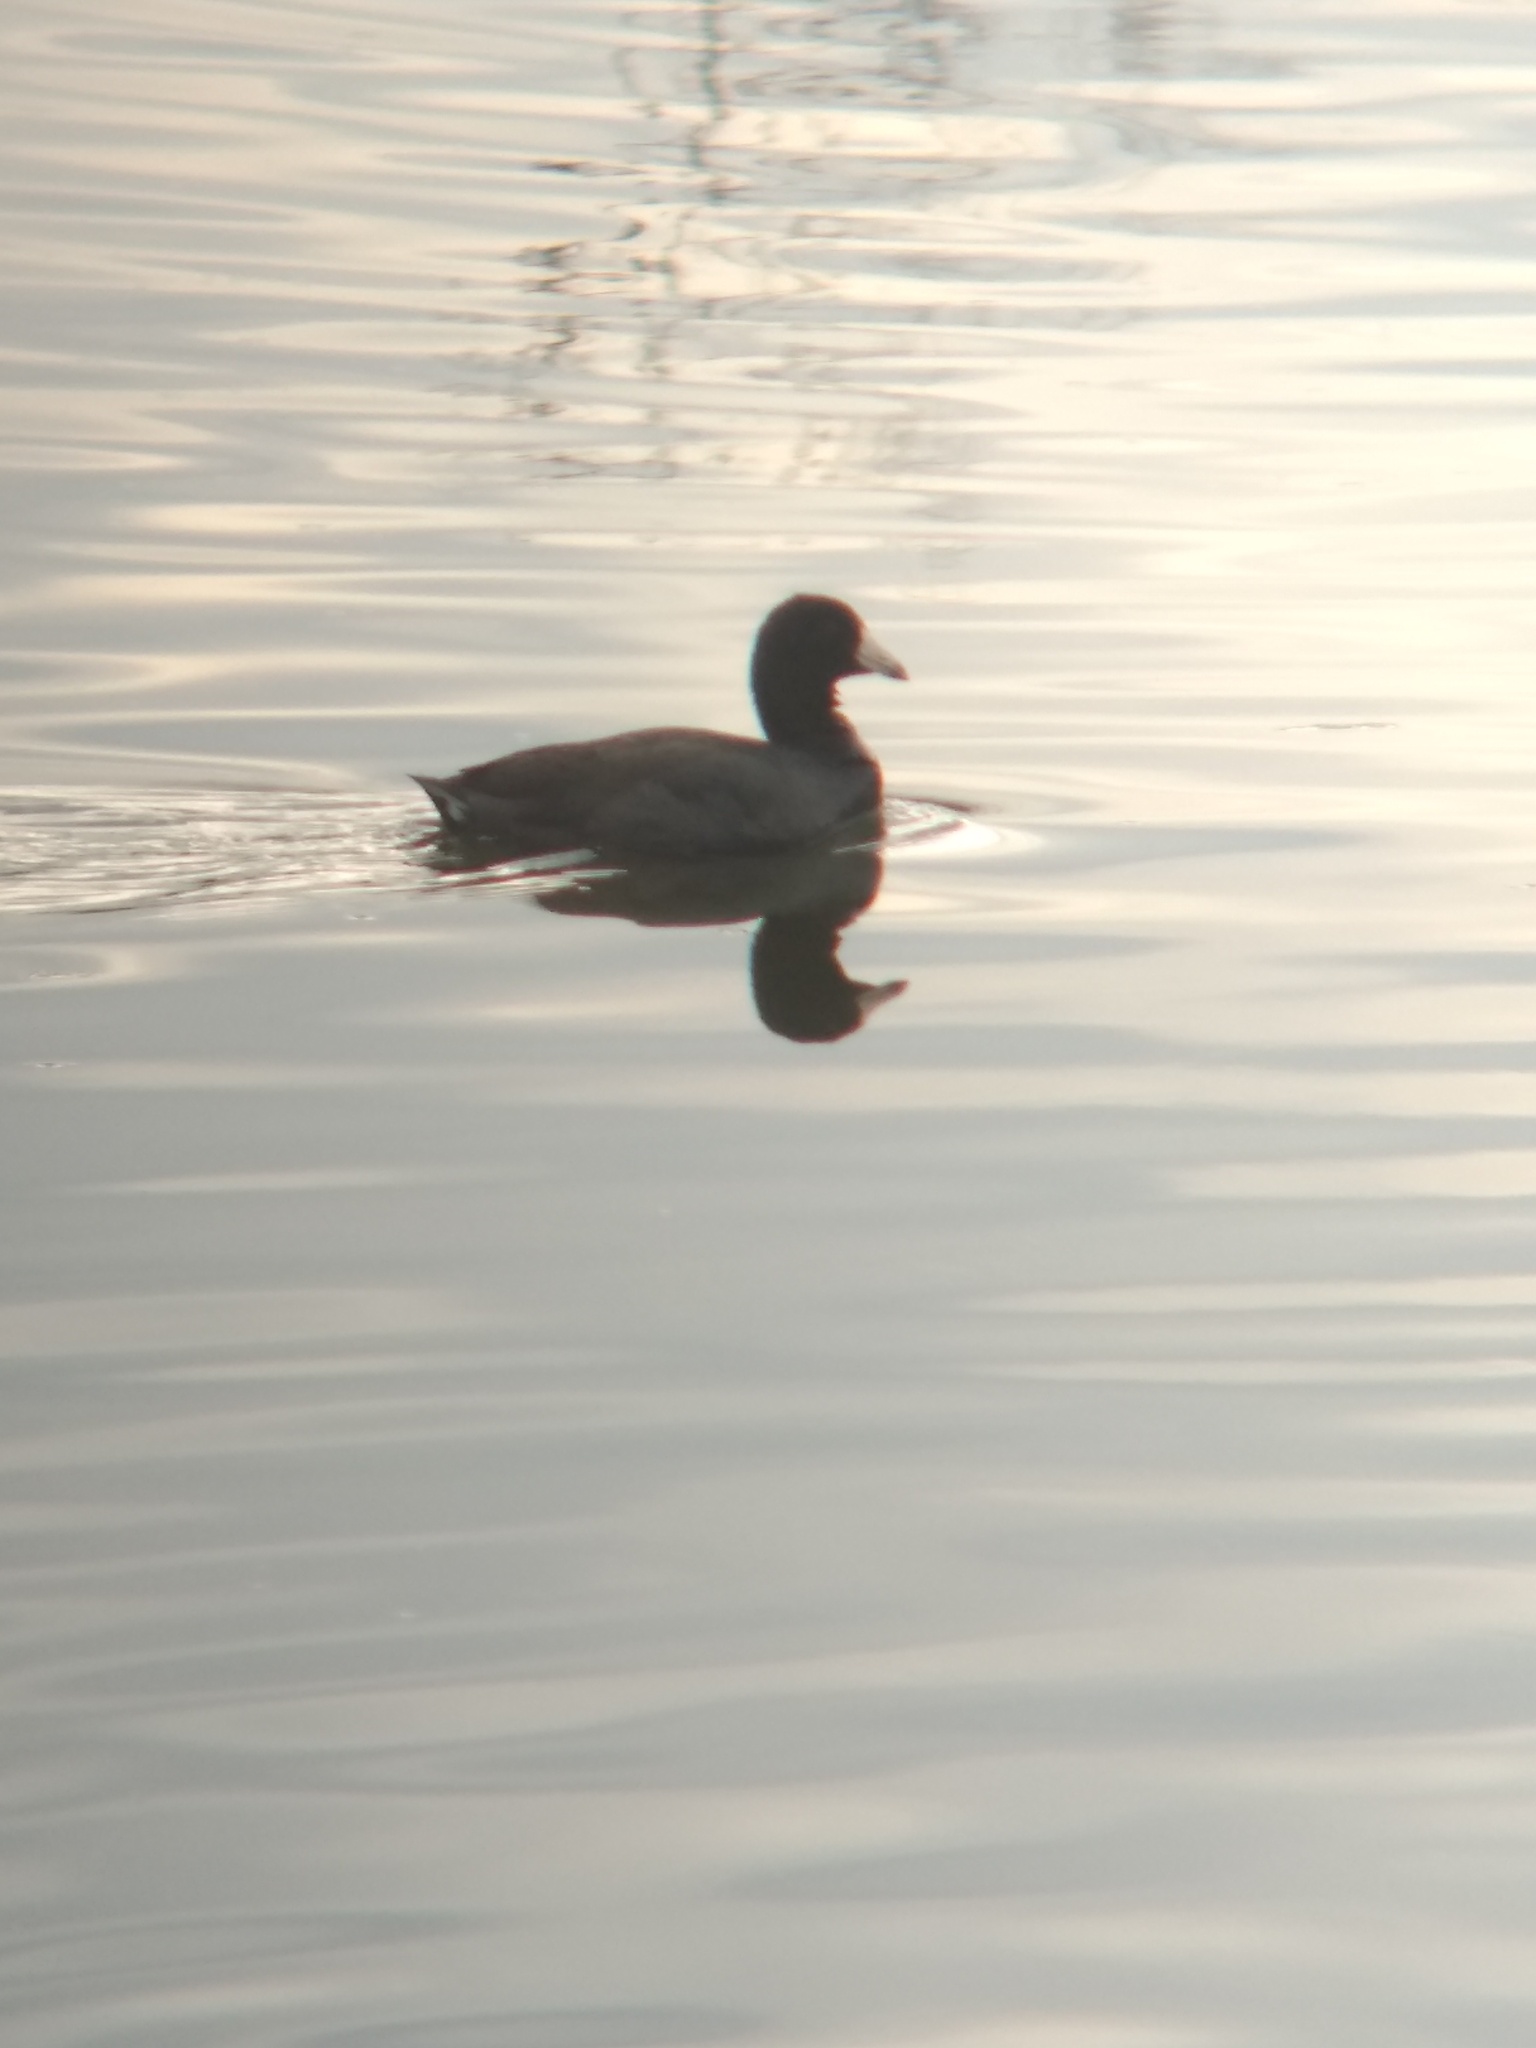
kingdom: Animalia
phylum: Chordata
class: Aves
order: Gruiformes
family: Rallidae
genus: Fulica
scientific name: Fulica americana
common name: American coot
